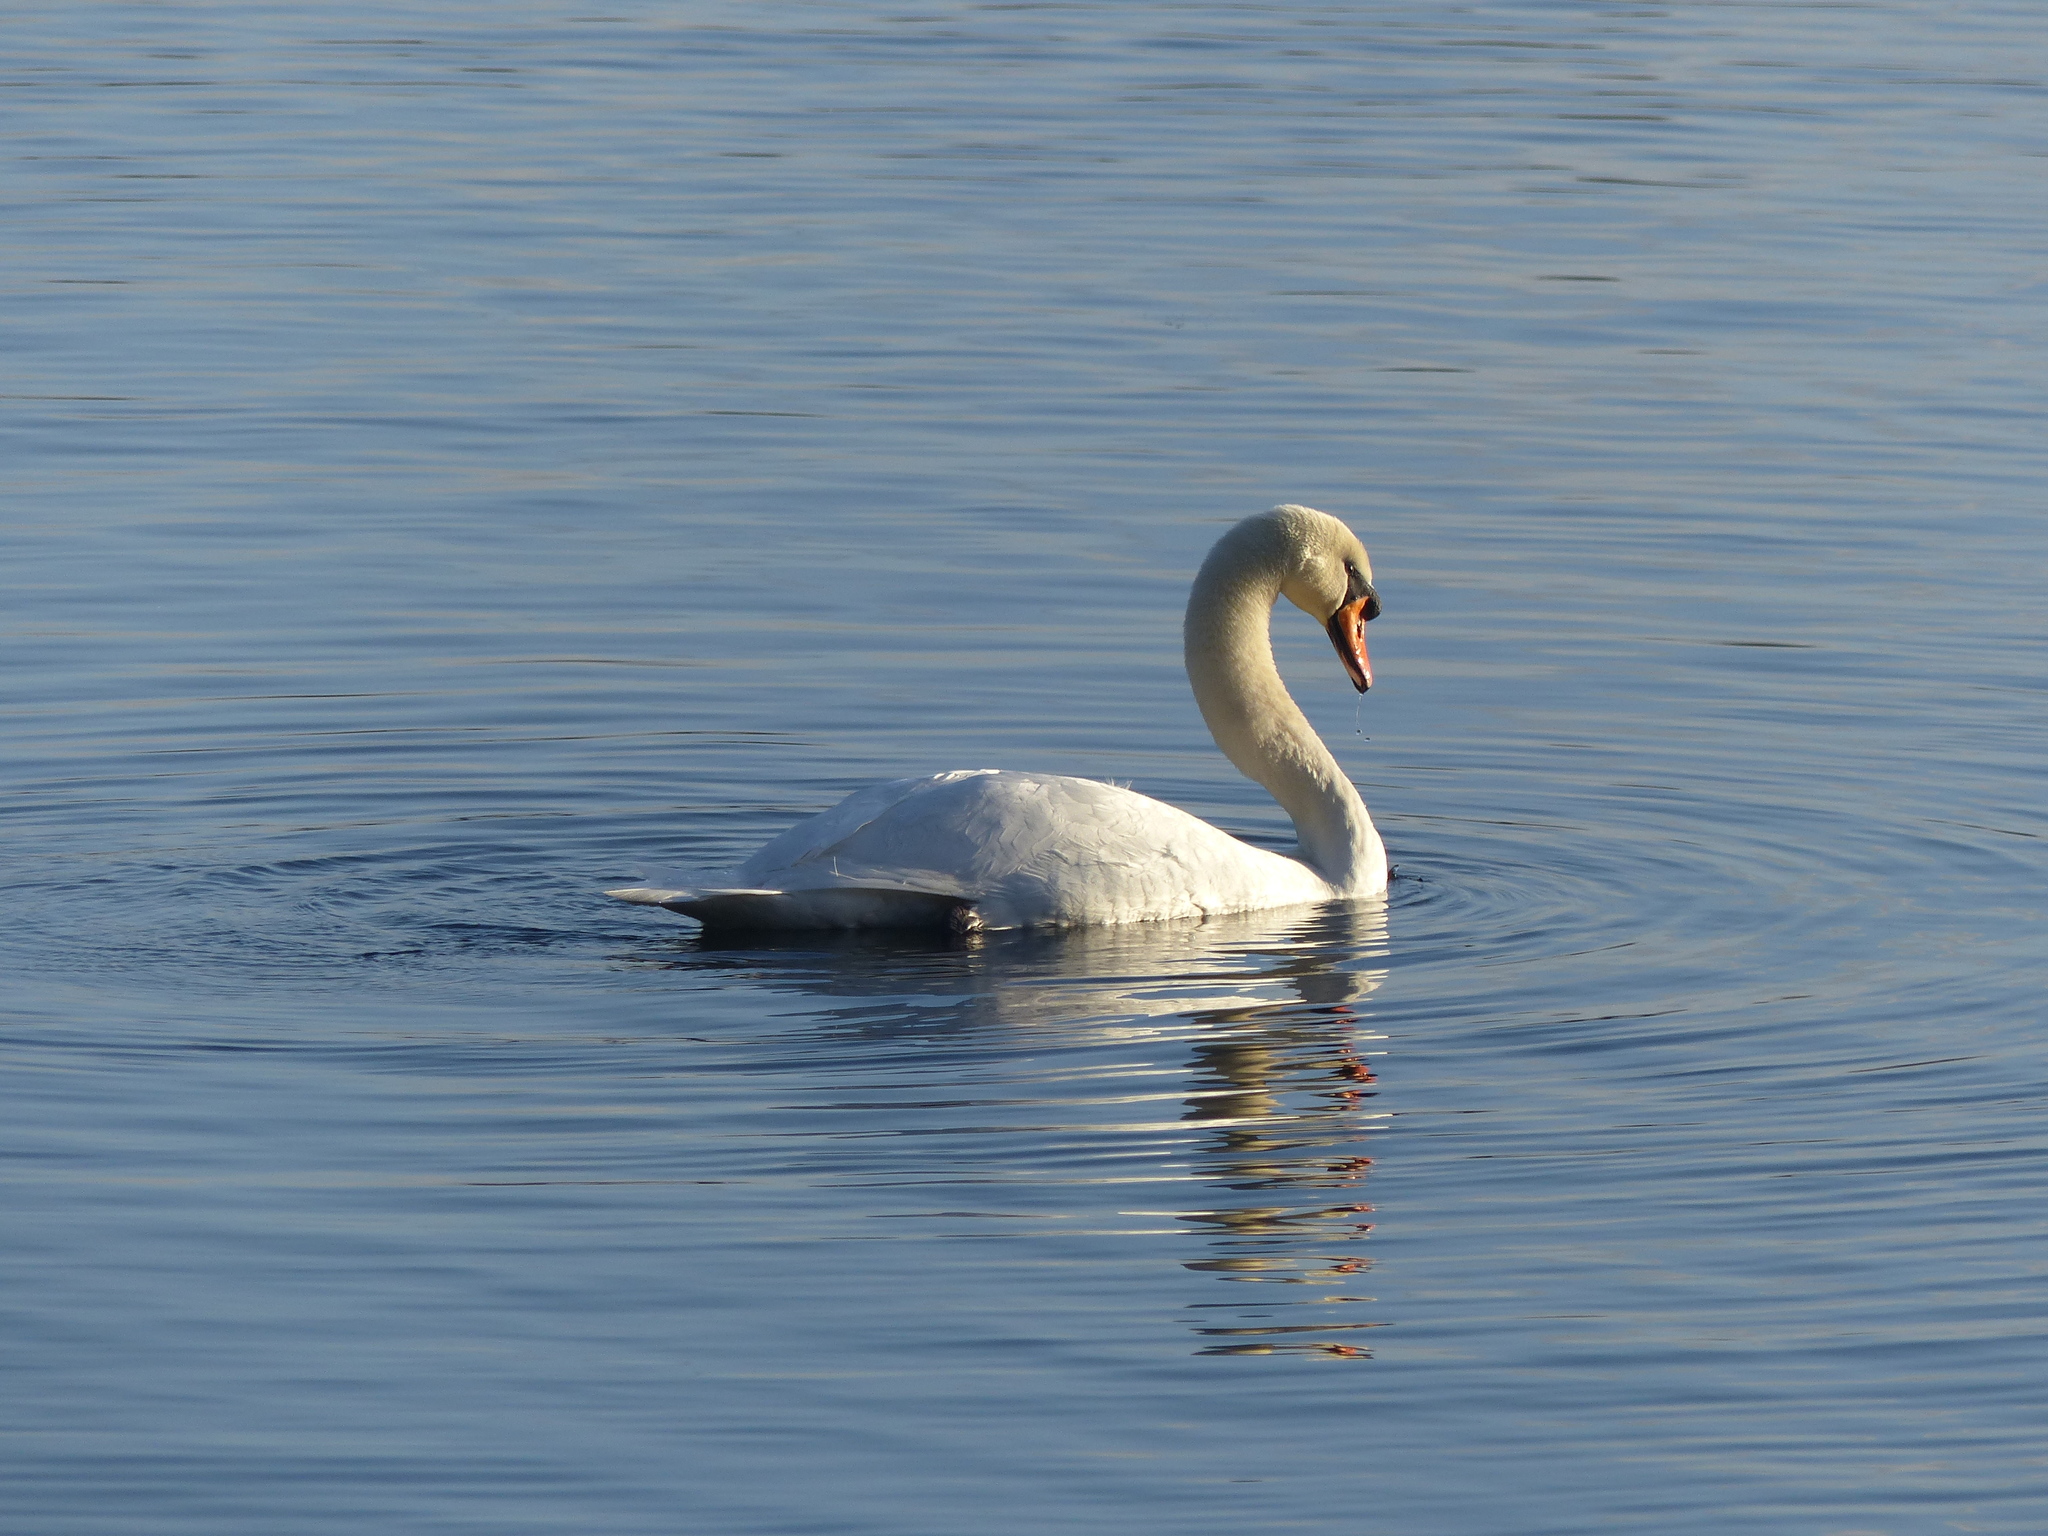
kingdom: Animalia
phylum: Chordata
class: Aves
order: Anseriformes
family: Anatidae
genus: Cygnus
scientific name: Cygnus olor
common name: Mute swan
